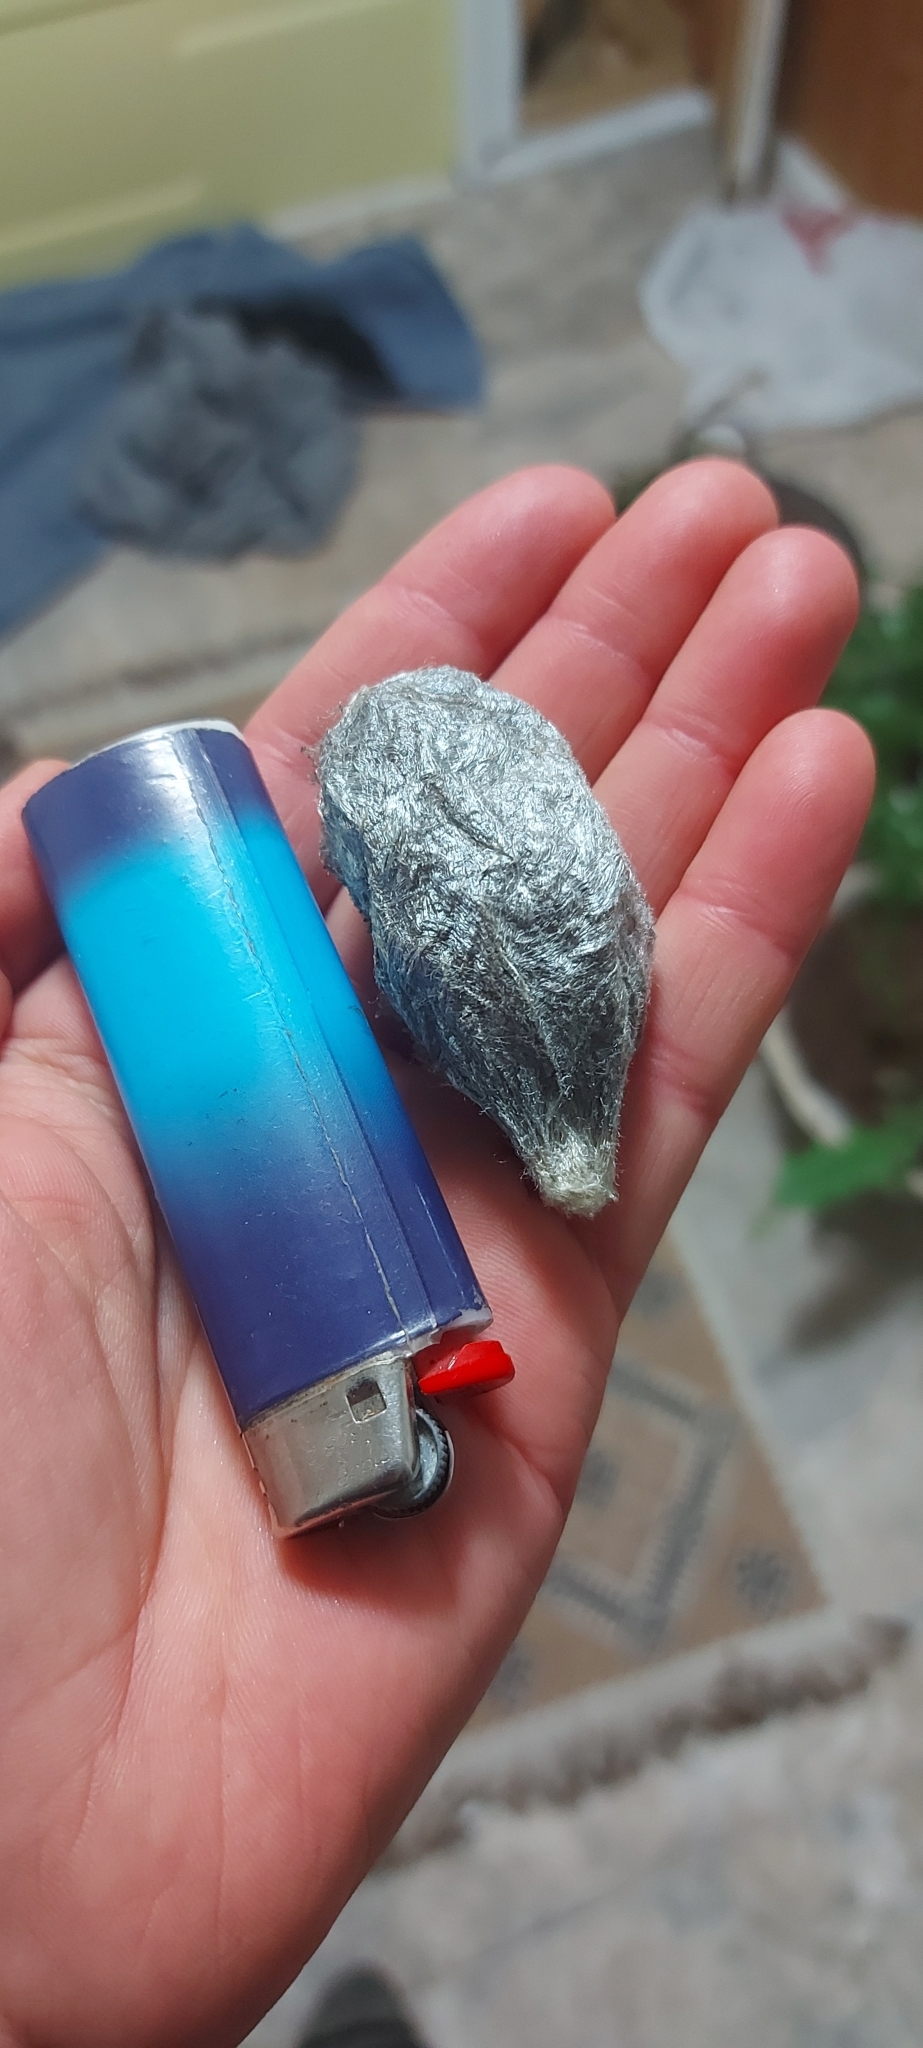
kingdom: Animalia
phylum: Arthropoda
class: Insecta
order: Lepidoptera
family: Saturniidae
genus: Hyalophora
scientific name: Hyalophora euryalus
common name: Ceanothus silkmoth
